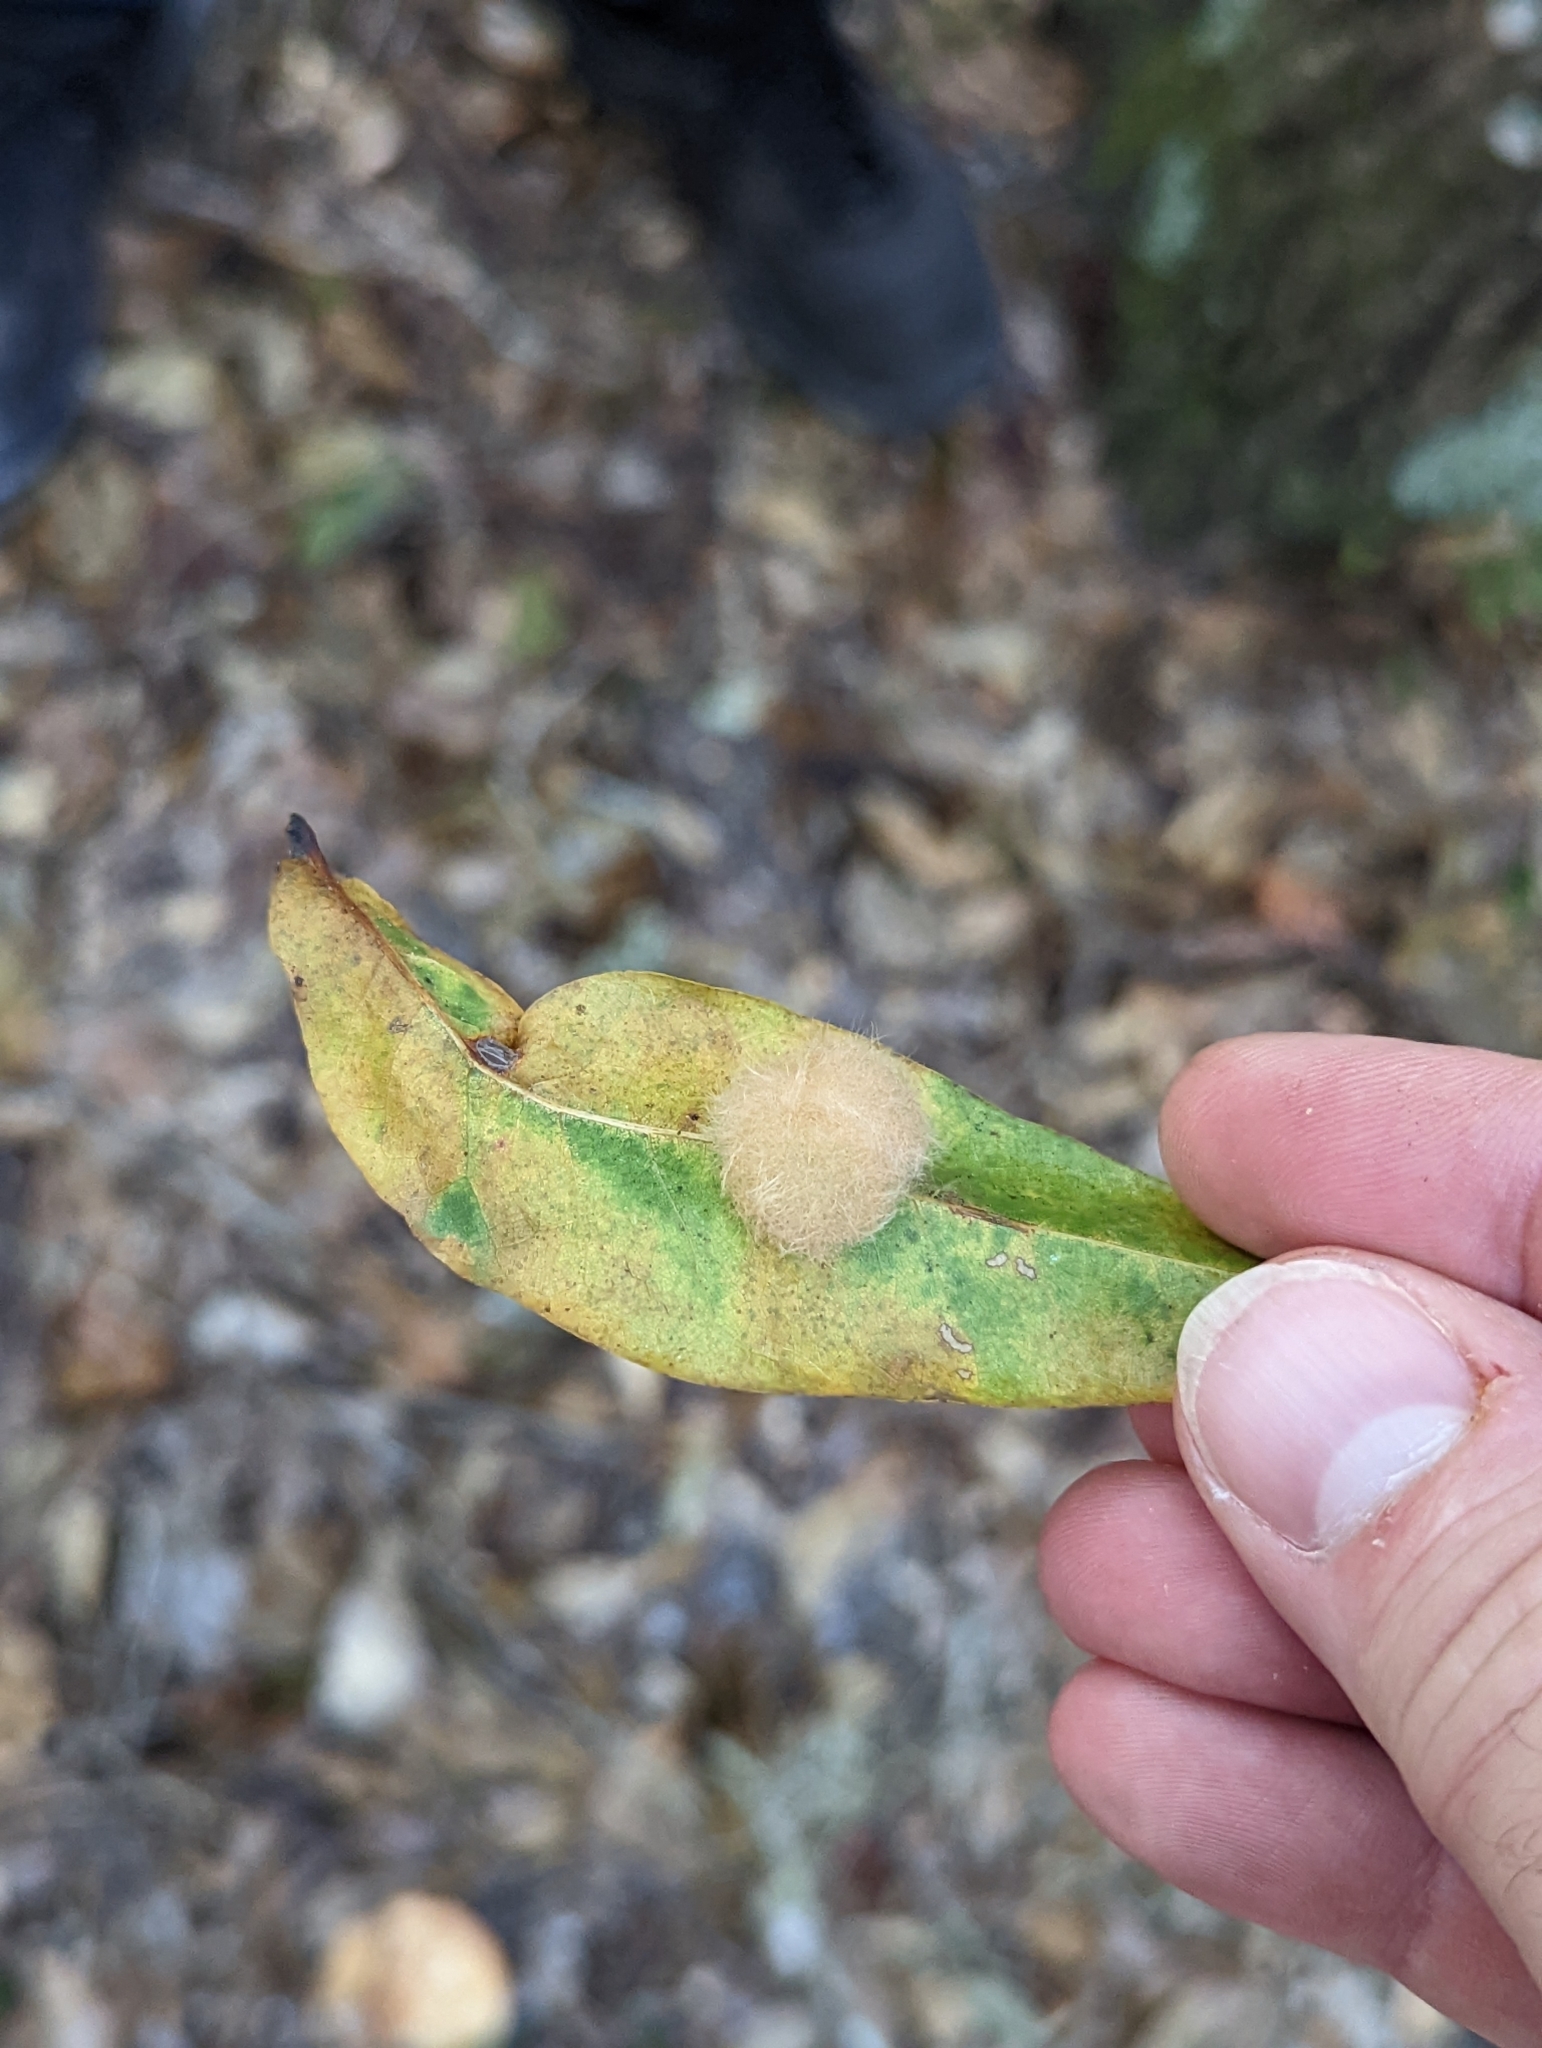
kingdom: Animalia
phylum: Arthropoda
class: Insecta
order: Hymenoptera
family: Cynipidae
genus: Andricus
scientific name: Andricus Druon quercuslanigerum
